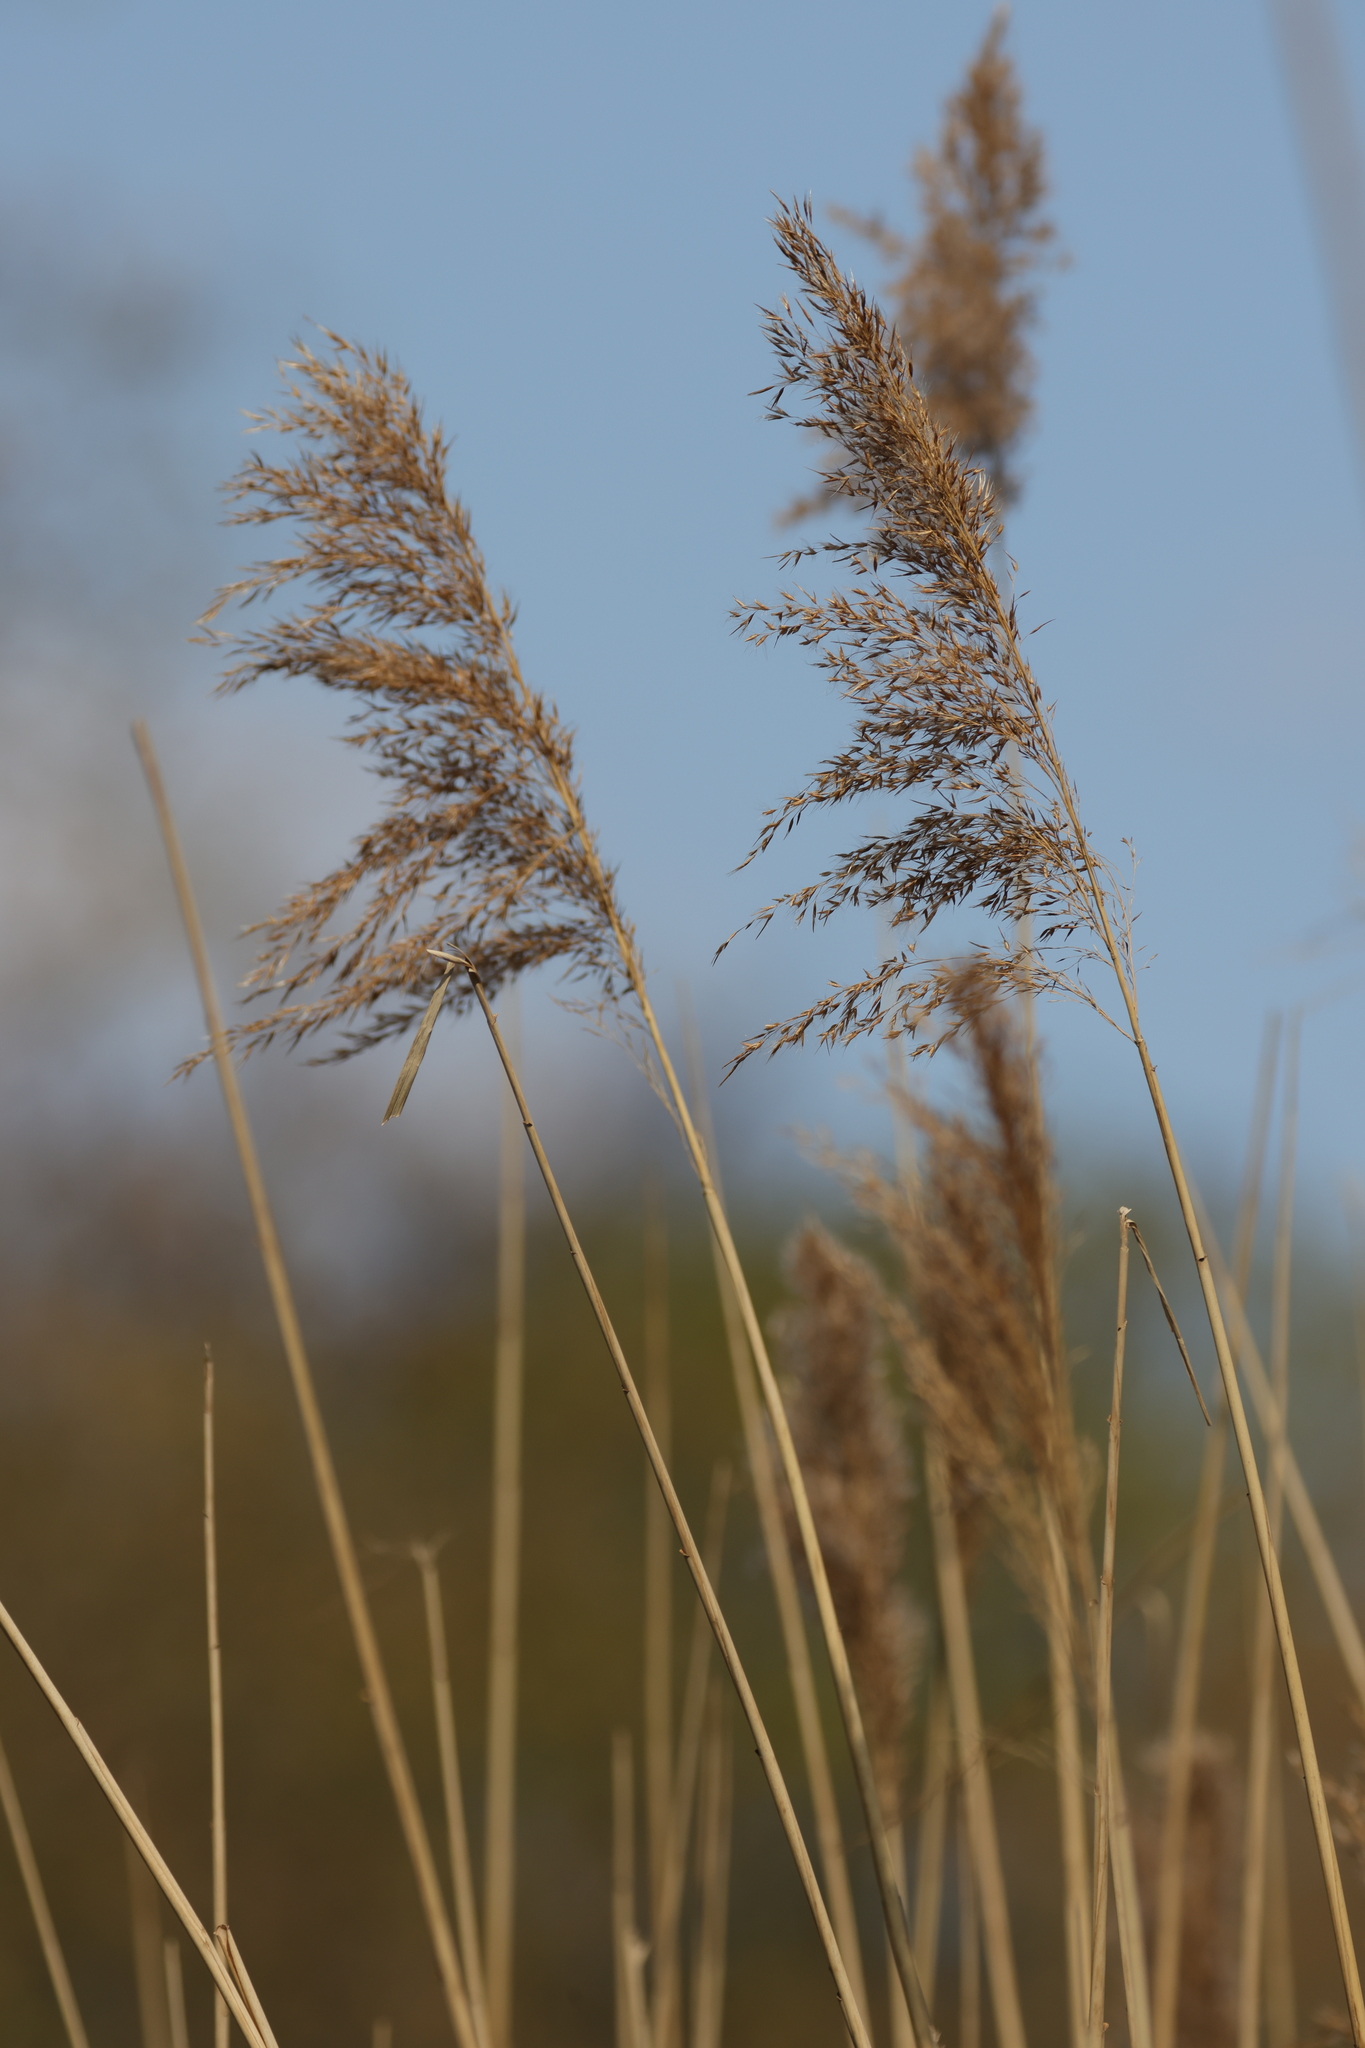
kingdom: Plantae
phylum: Tracheophyta
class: Liliopsida
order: Poales
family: Poaceae
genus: Phragmites
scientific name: Phragmites australis
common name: Common reed
